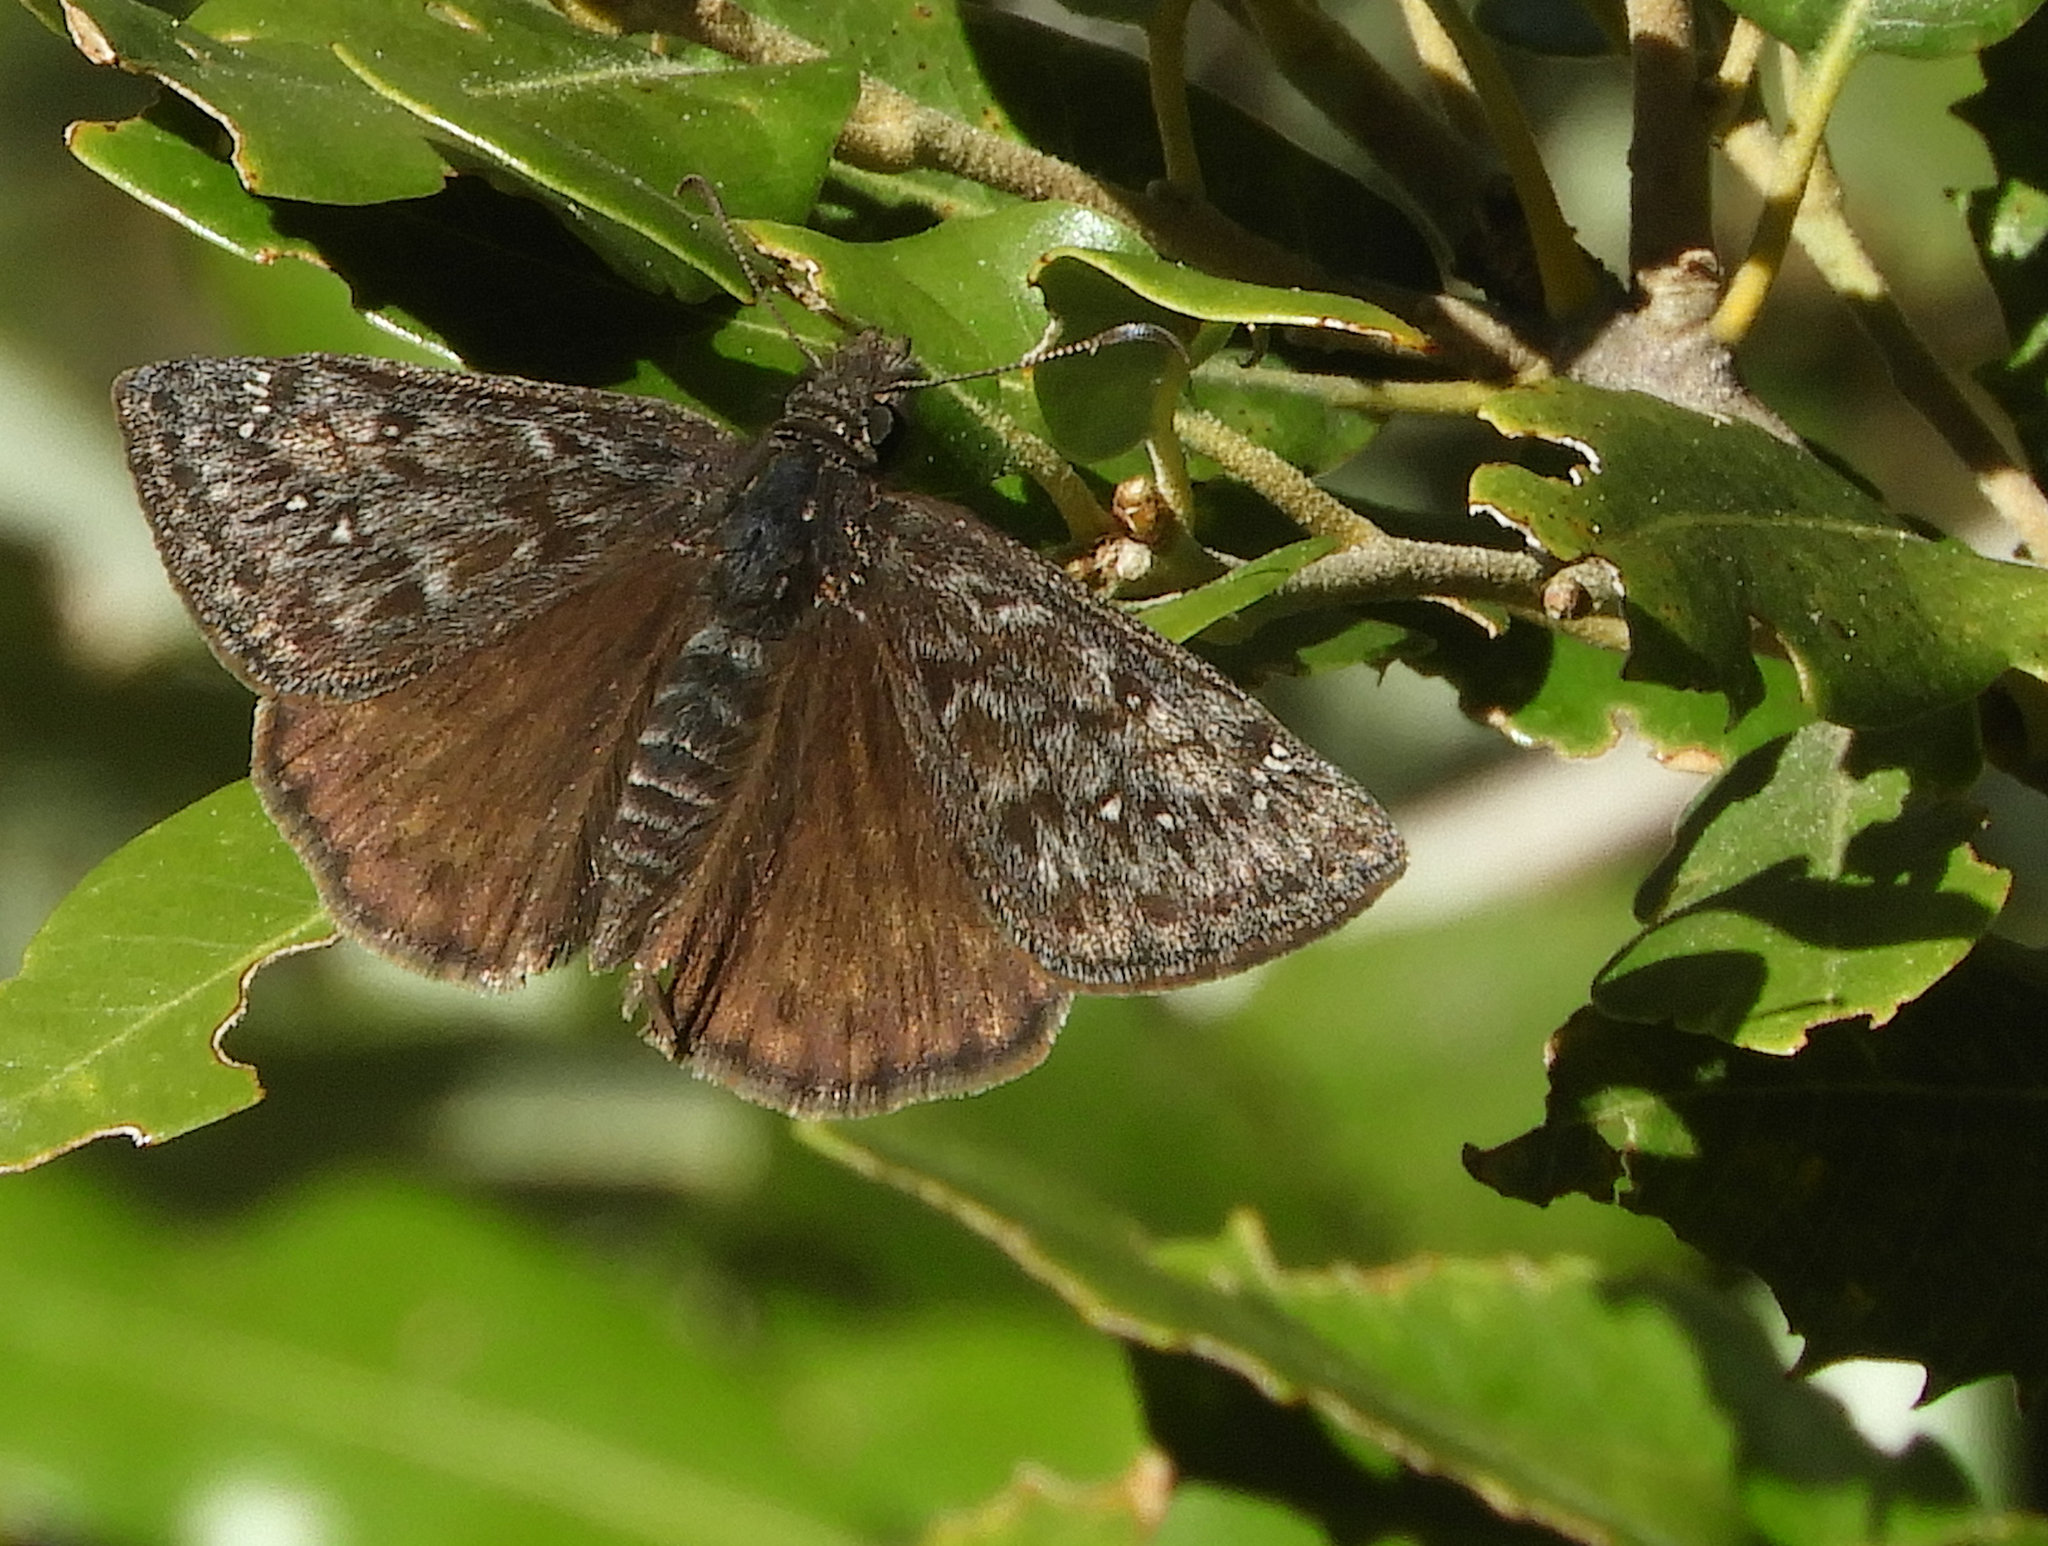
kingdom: Animalia
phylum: Arthropoda
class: Insecta
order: Lepidoptera
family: Hesperiidae
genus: Erynnis
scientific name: Erynnis propertius
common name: Propertius duskywing
